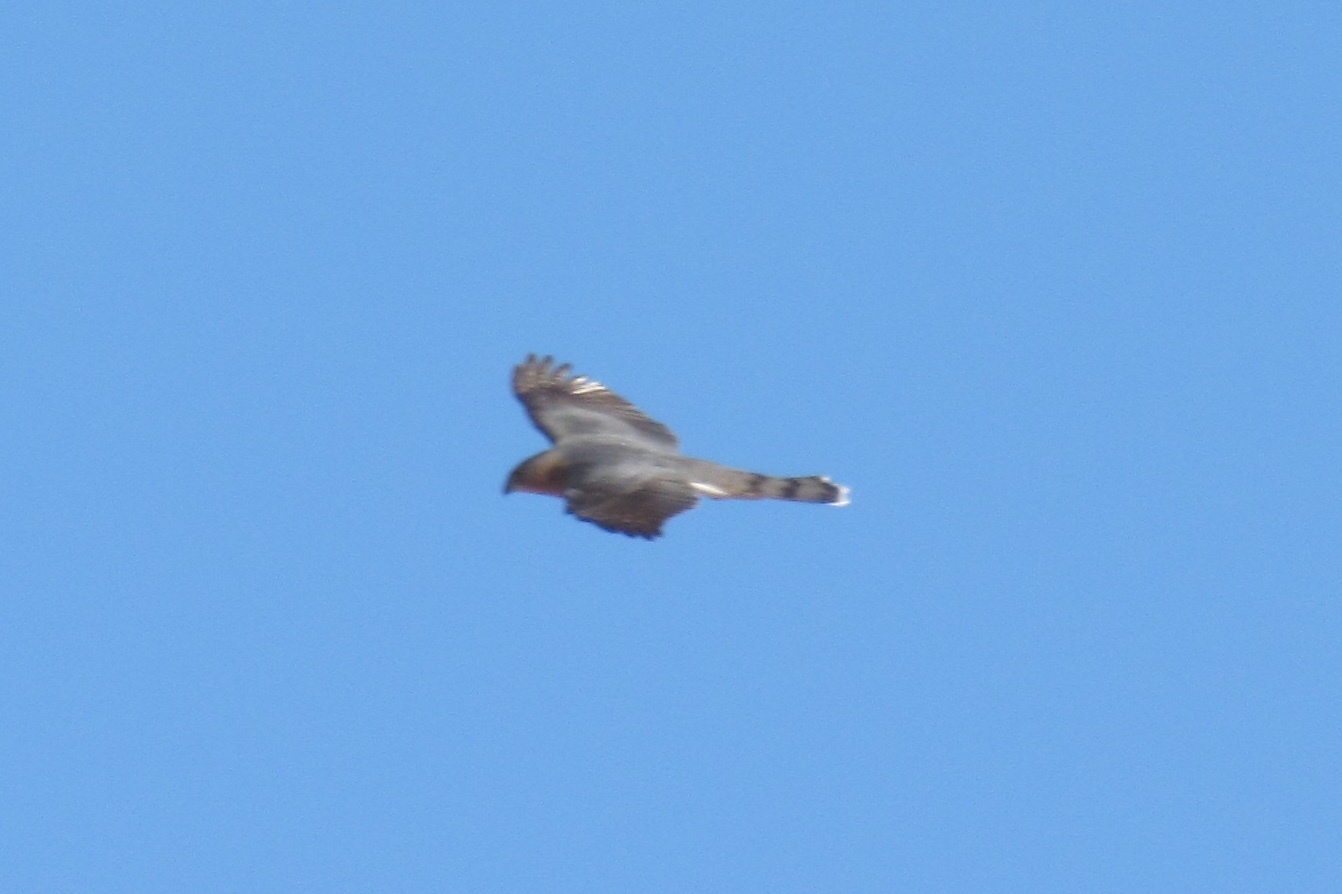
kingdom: Animalia
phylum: Chordata
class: Aves
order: Accipitriformes
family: Accipitridae
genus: Accipiter
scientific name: Accipiter cooperii
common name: Cooper's hawk
